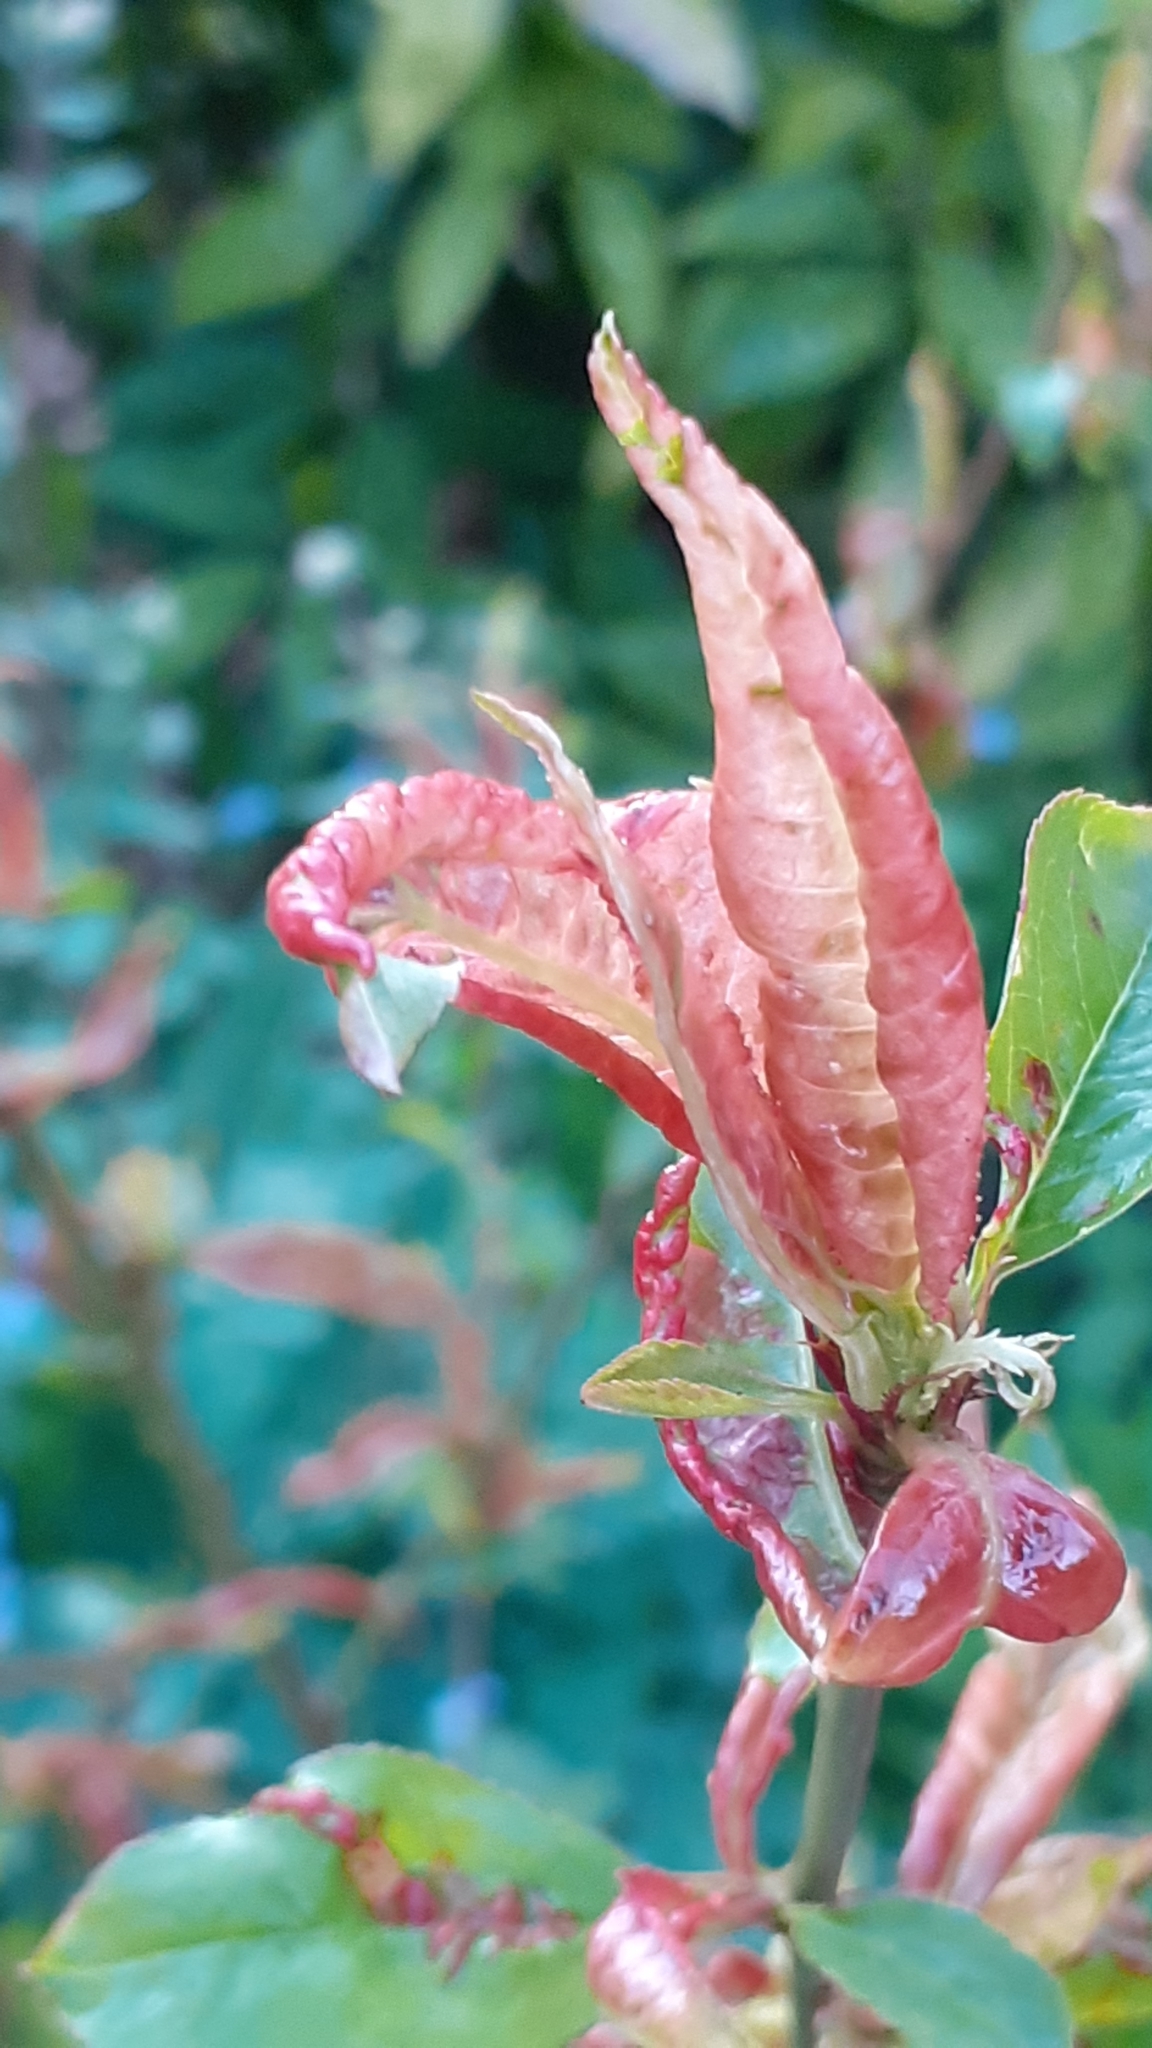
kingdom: Fungi
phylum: Ascomycota
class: Taphrinomycetes
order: Taphrinales
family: Taphrinaceae
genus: Taphrina
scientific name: Taphrina deformans
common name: Peach leaf curl
